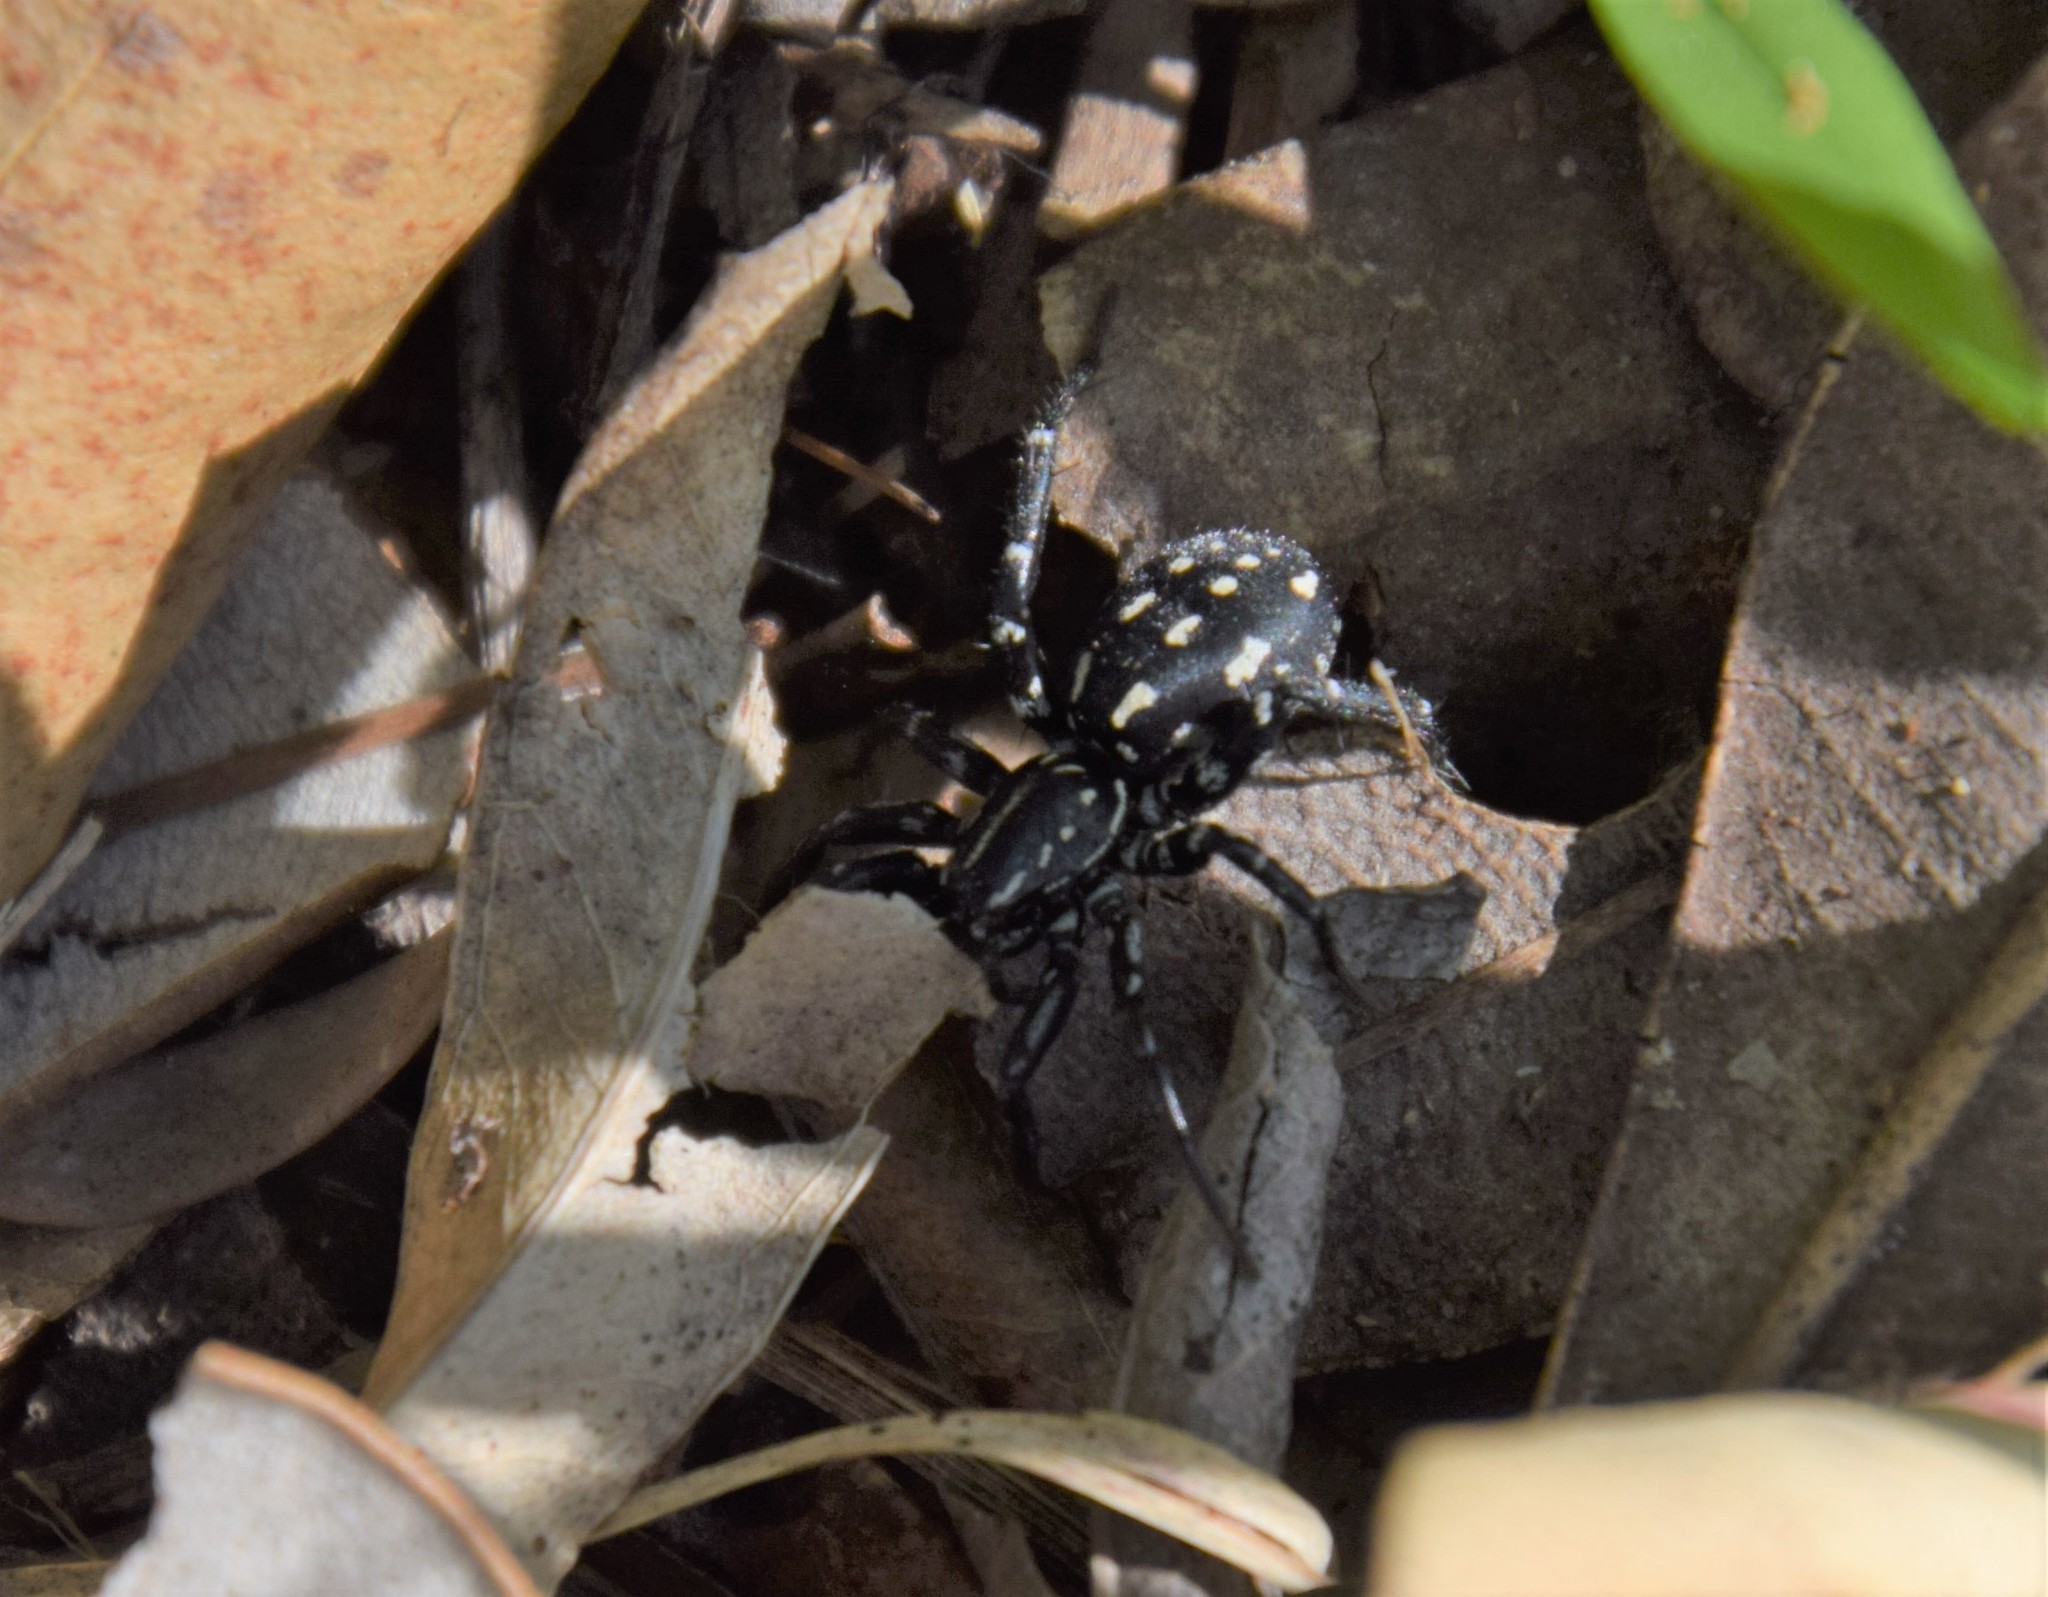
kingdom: Animalia
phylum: Arthropoda
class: Arachnida
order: Araneae
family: Corinnidae
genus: Nyssus
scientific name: Nyssus albopunctatus
